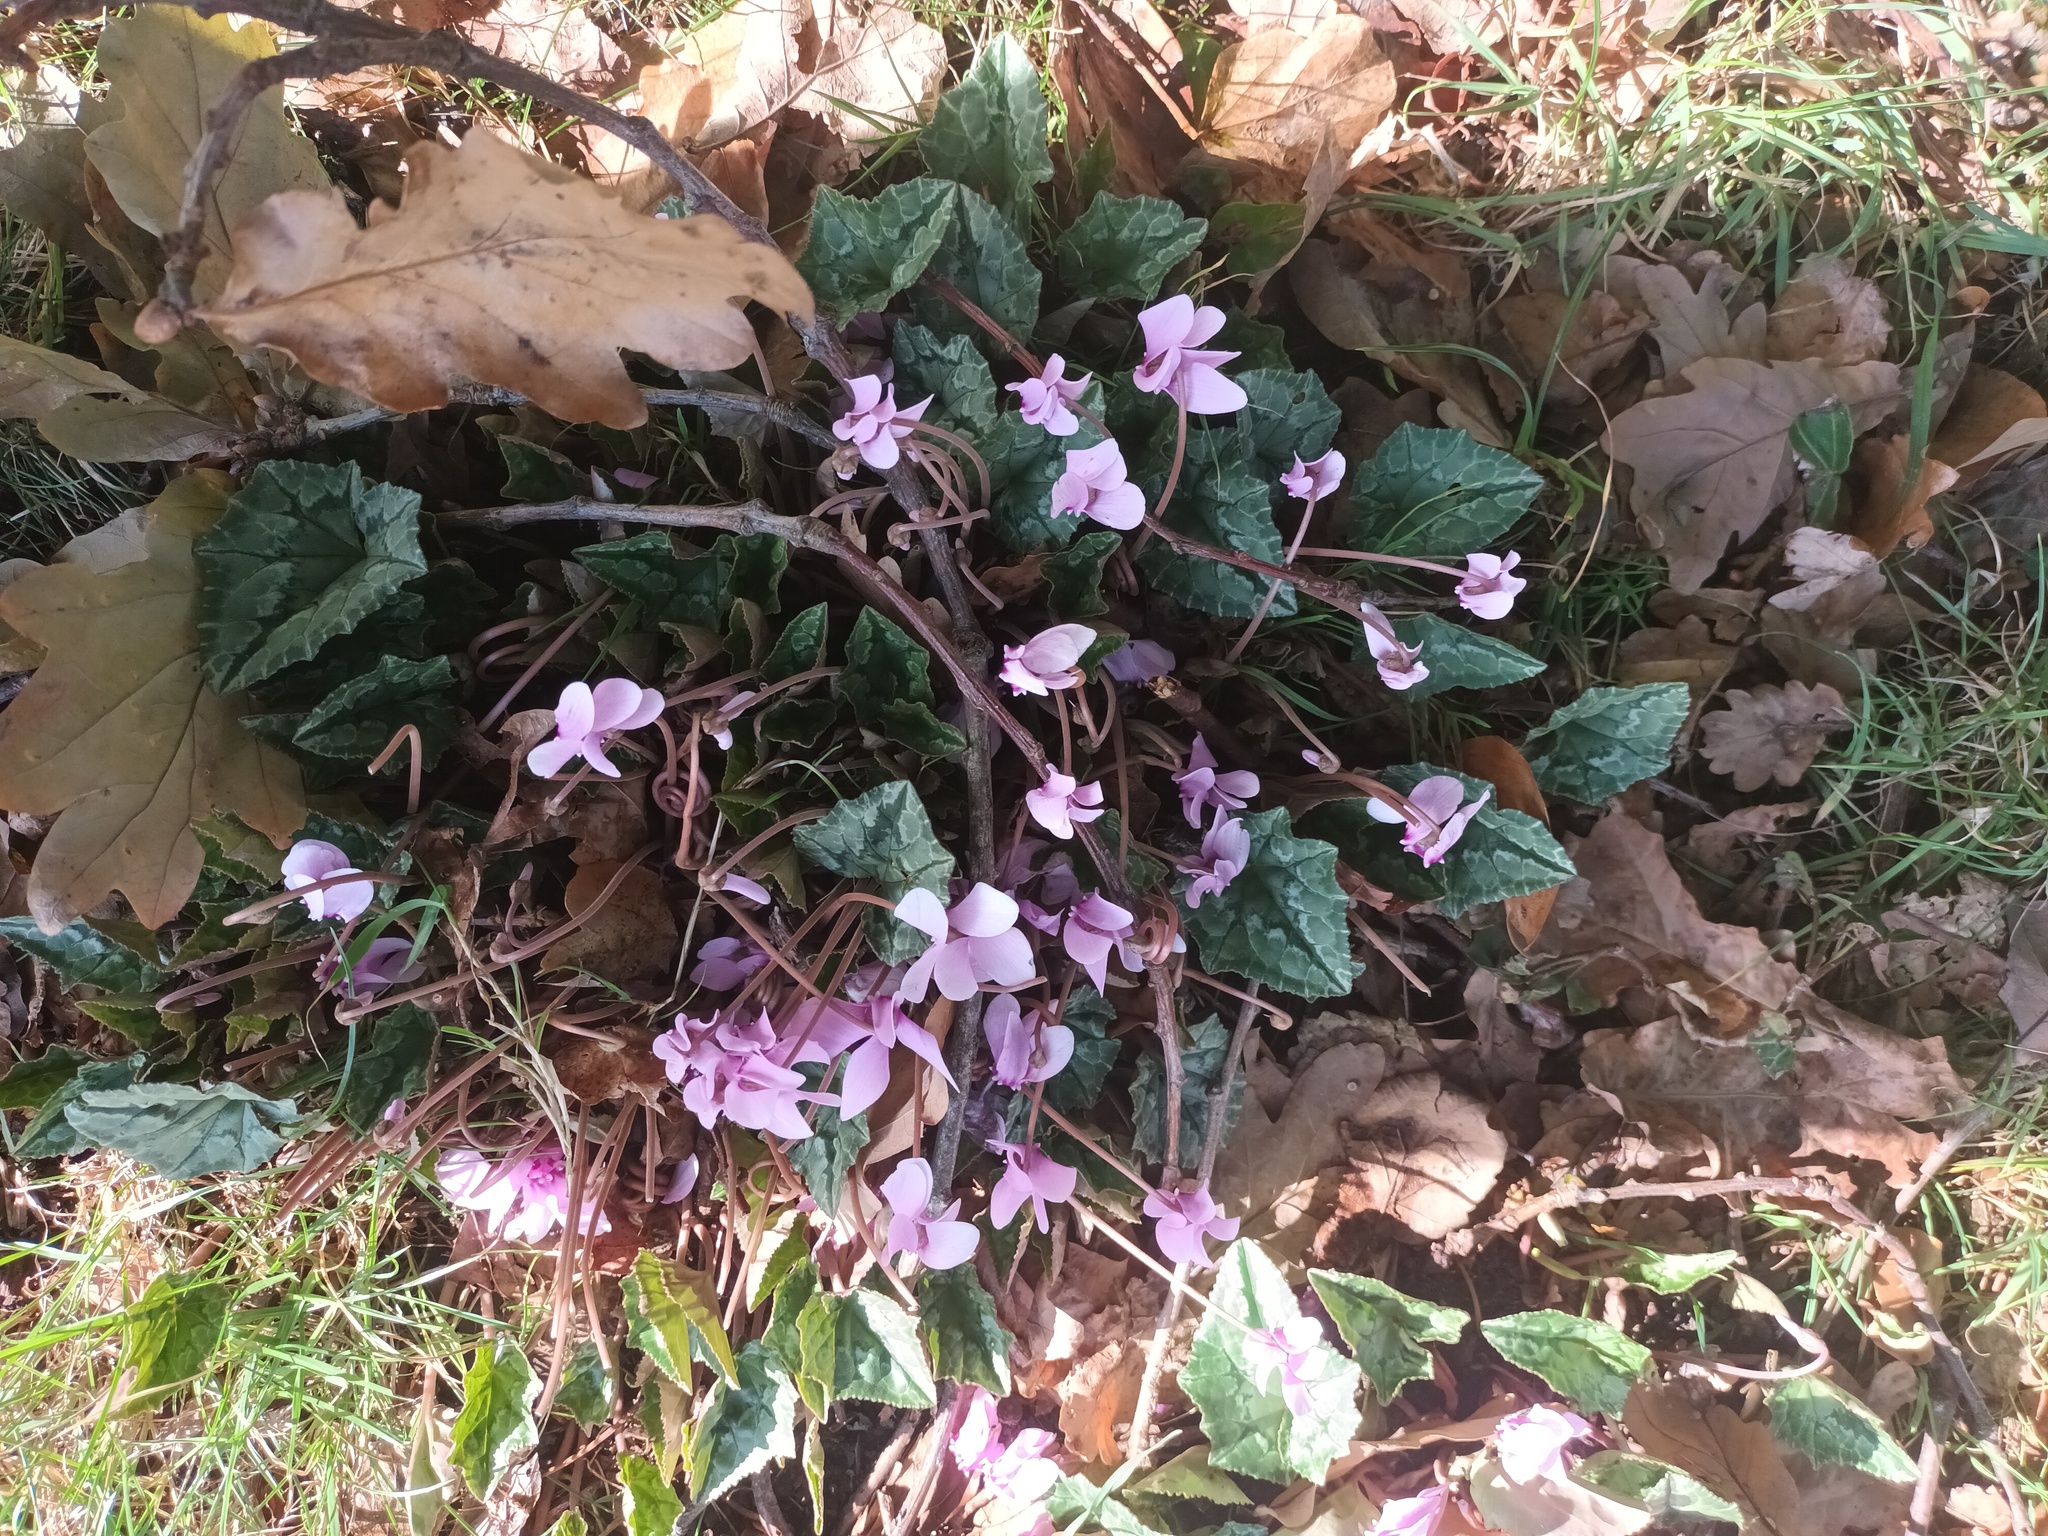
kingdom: Plantae
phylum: Tracheophyta
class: Magnoliopsida
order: Ericales
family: Primulaceae
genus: Cyclamen
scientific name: Cyclamen hederifolium
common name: Sowbread
